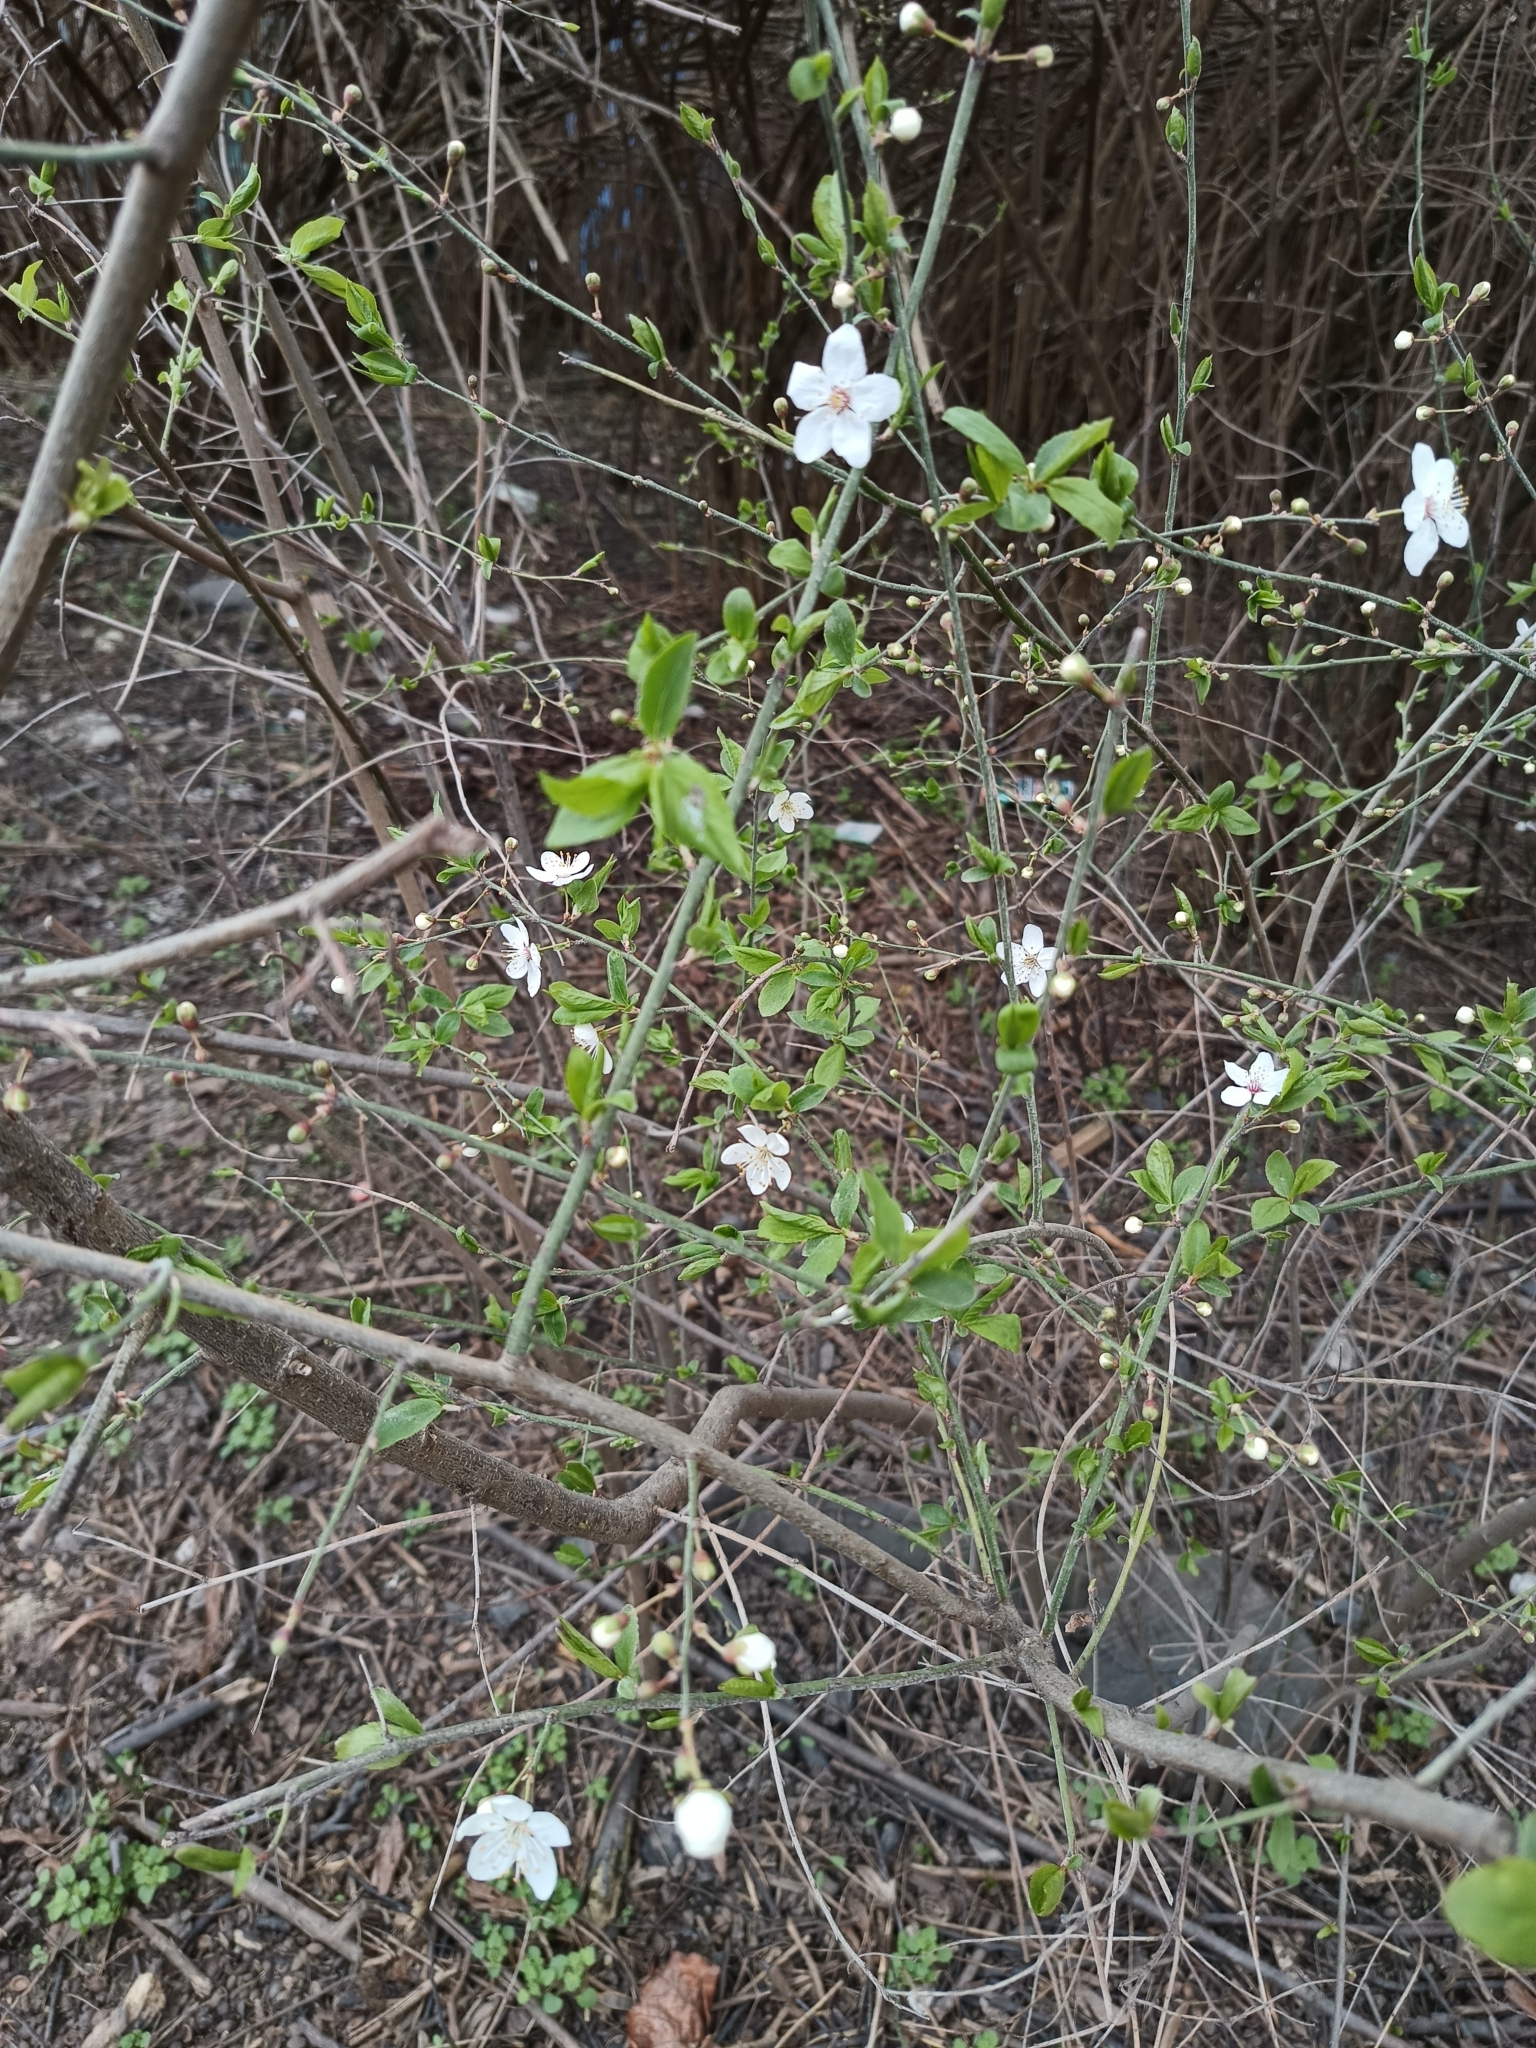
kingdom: Plantae
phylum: Tracheophyta
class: Magnoliopsida
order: Rosales
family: Rosaceae
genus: Prunus
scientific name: Prunus cerasifera
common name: Cherry plum
